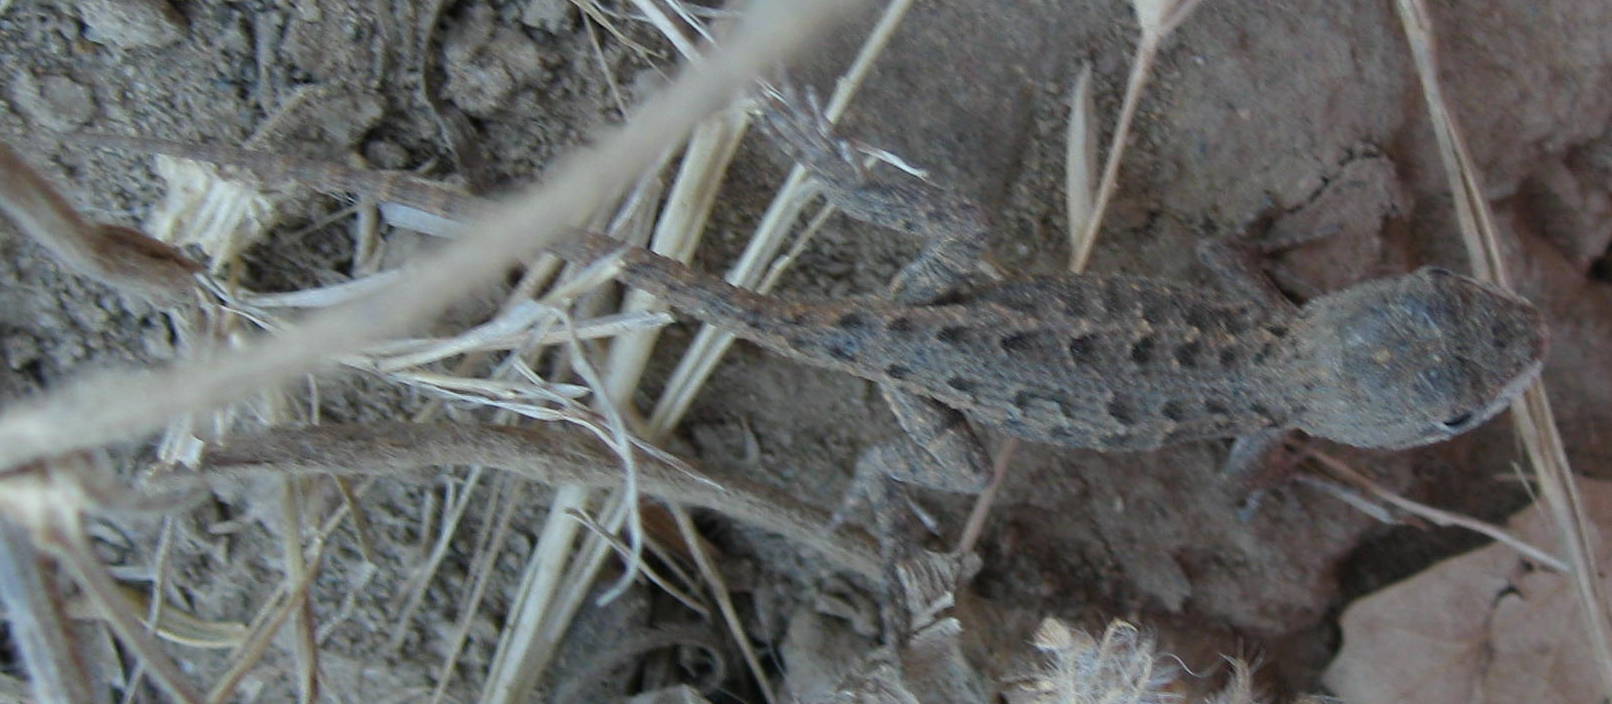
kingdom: Animalia
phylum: Chordata
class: Squamata
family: Phrynosomatidae
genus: Sceloporus
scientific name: Sceloporus occidentalis
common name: Western fence lizard
